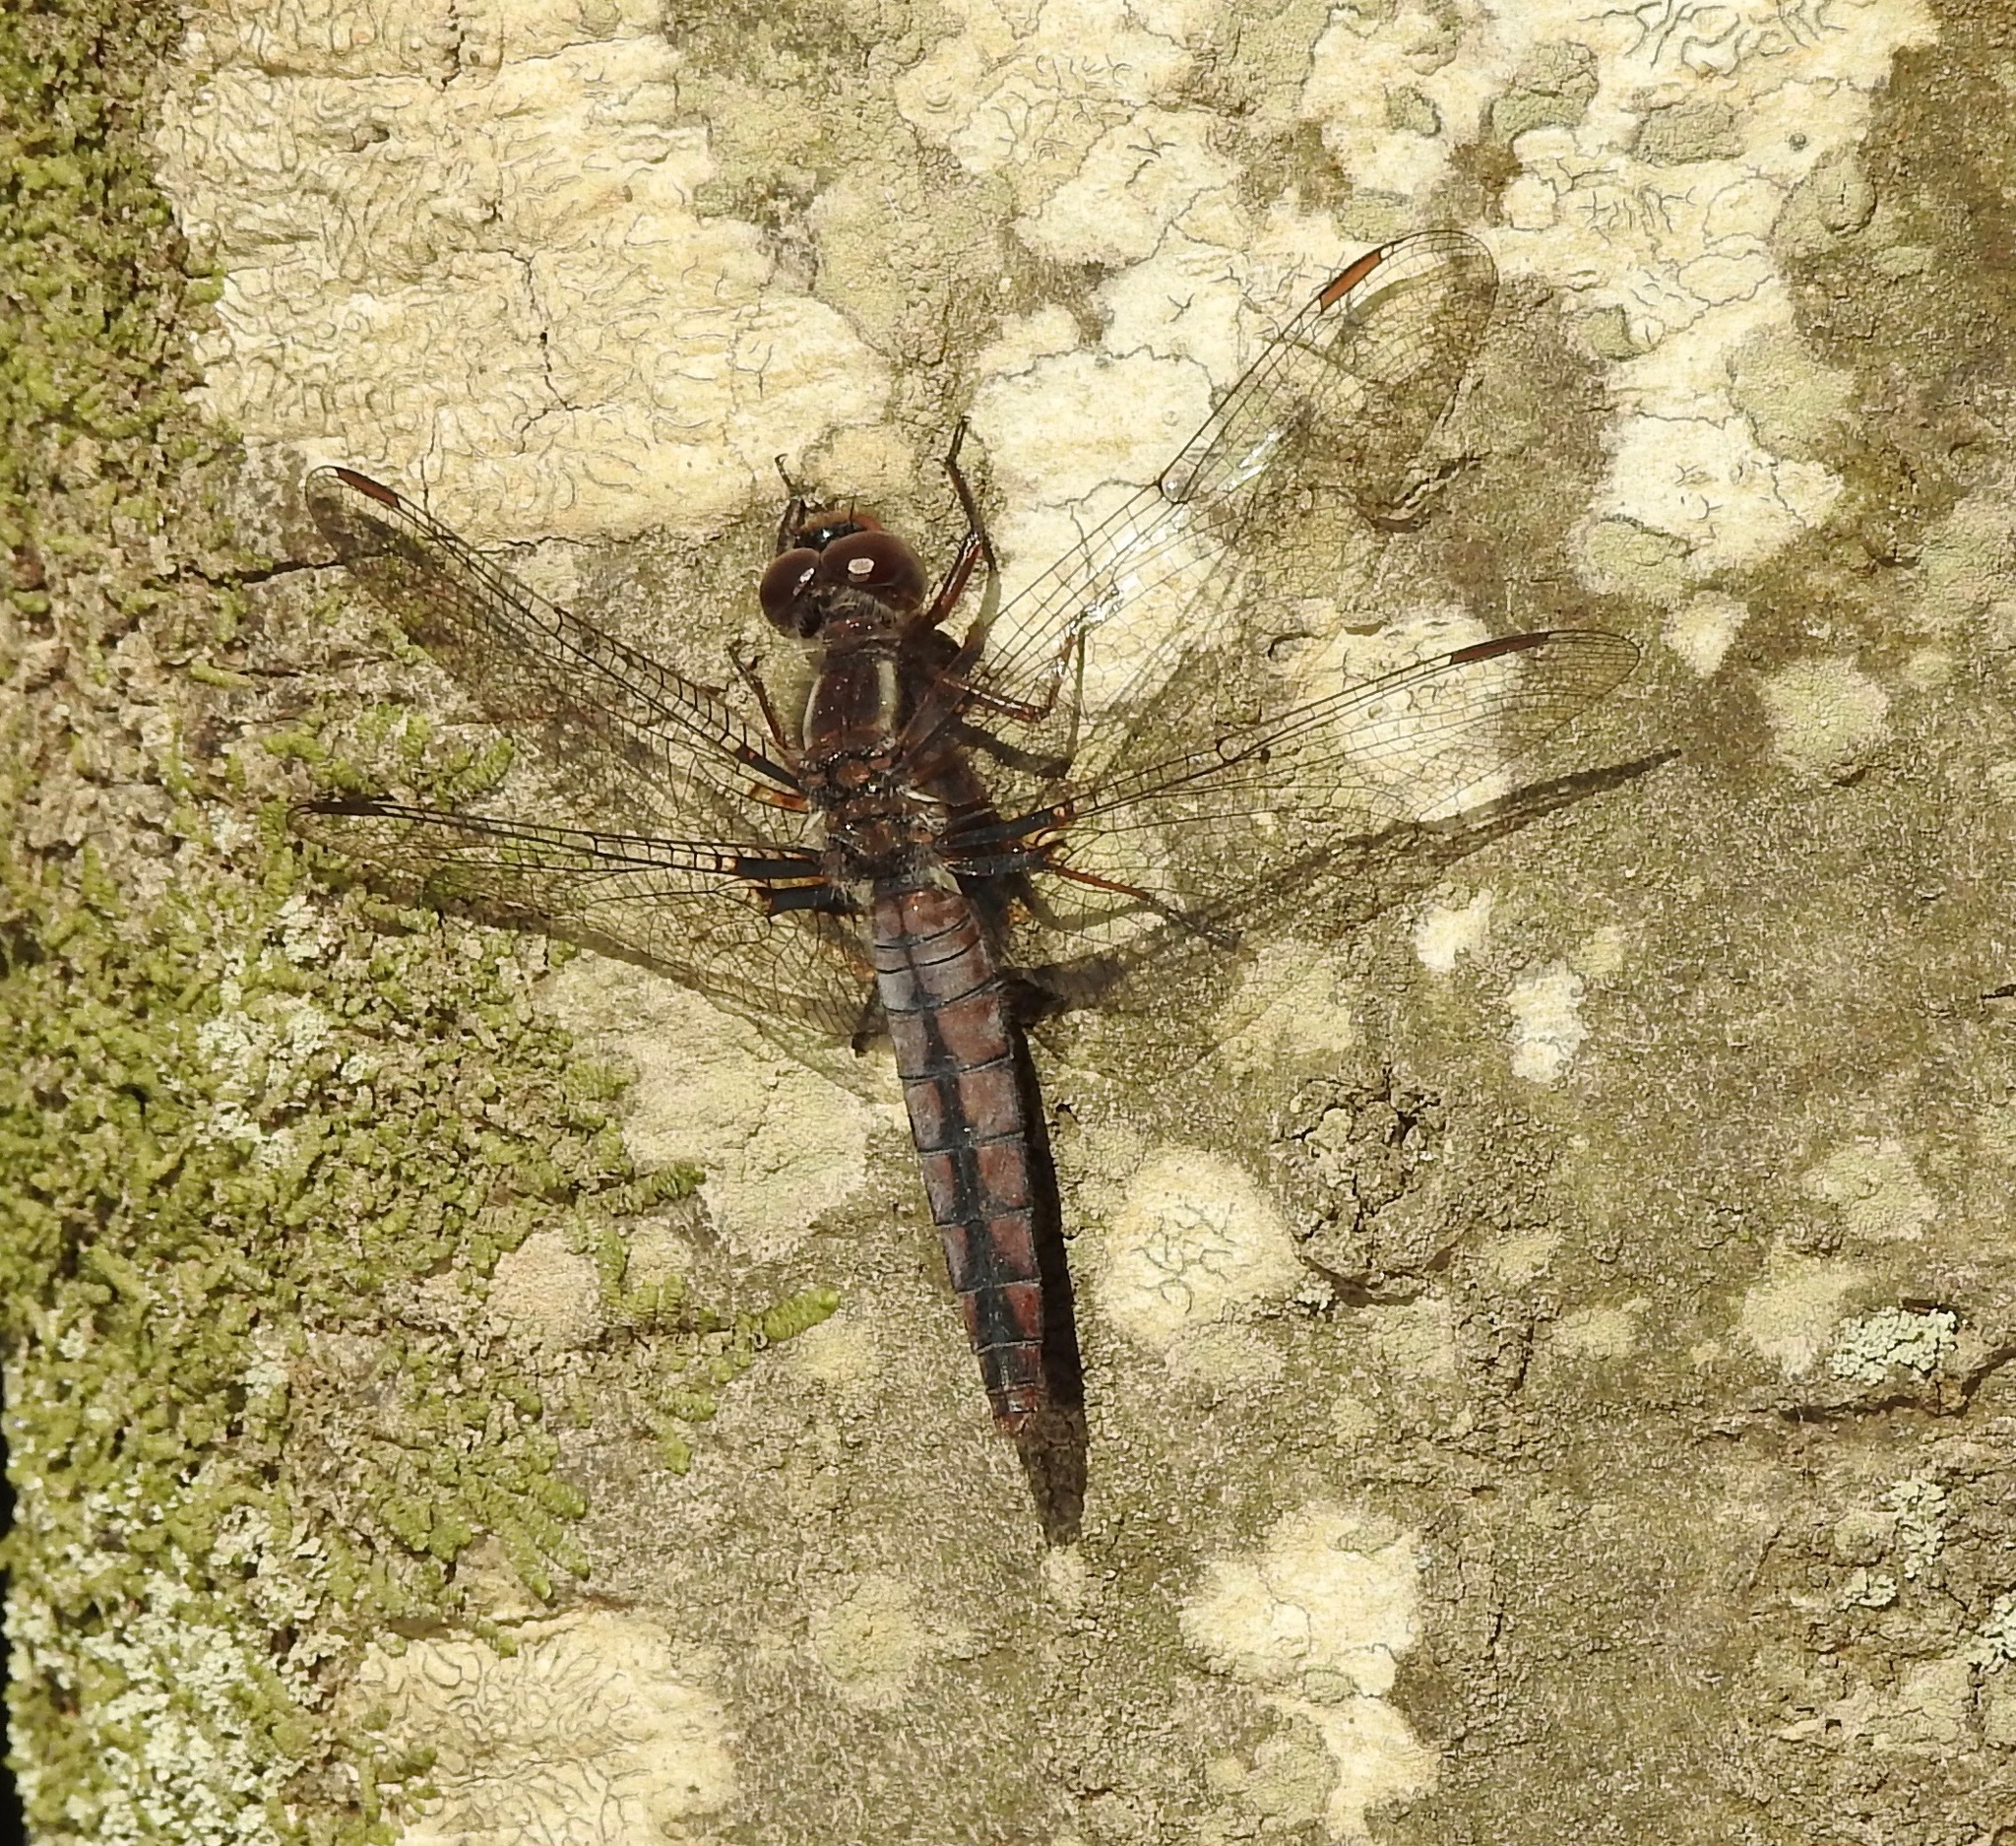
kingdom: Animalia
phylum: Arthropoda
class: Insecta
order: Odonata
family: Libellulidae
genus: Ladona
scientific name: Ladona deplanata
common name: Blue corporal
